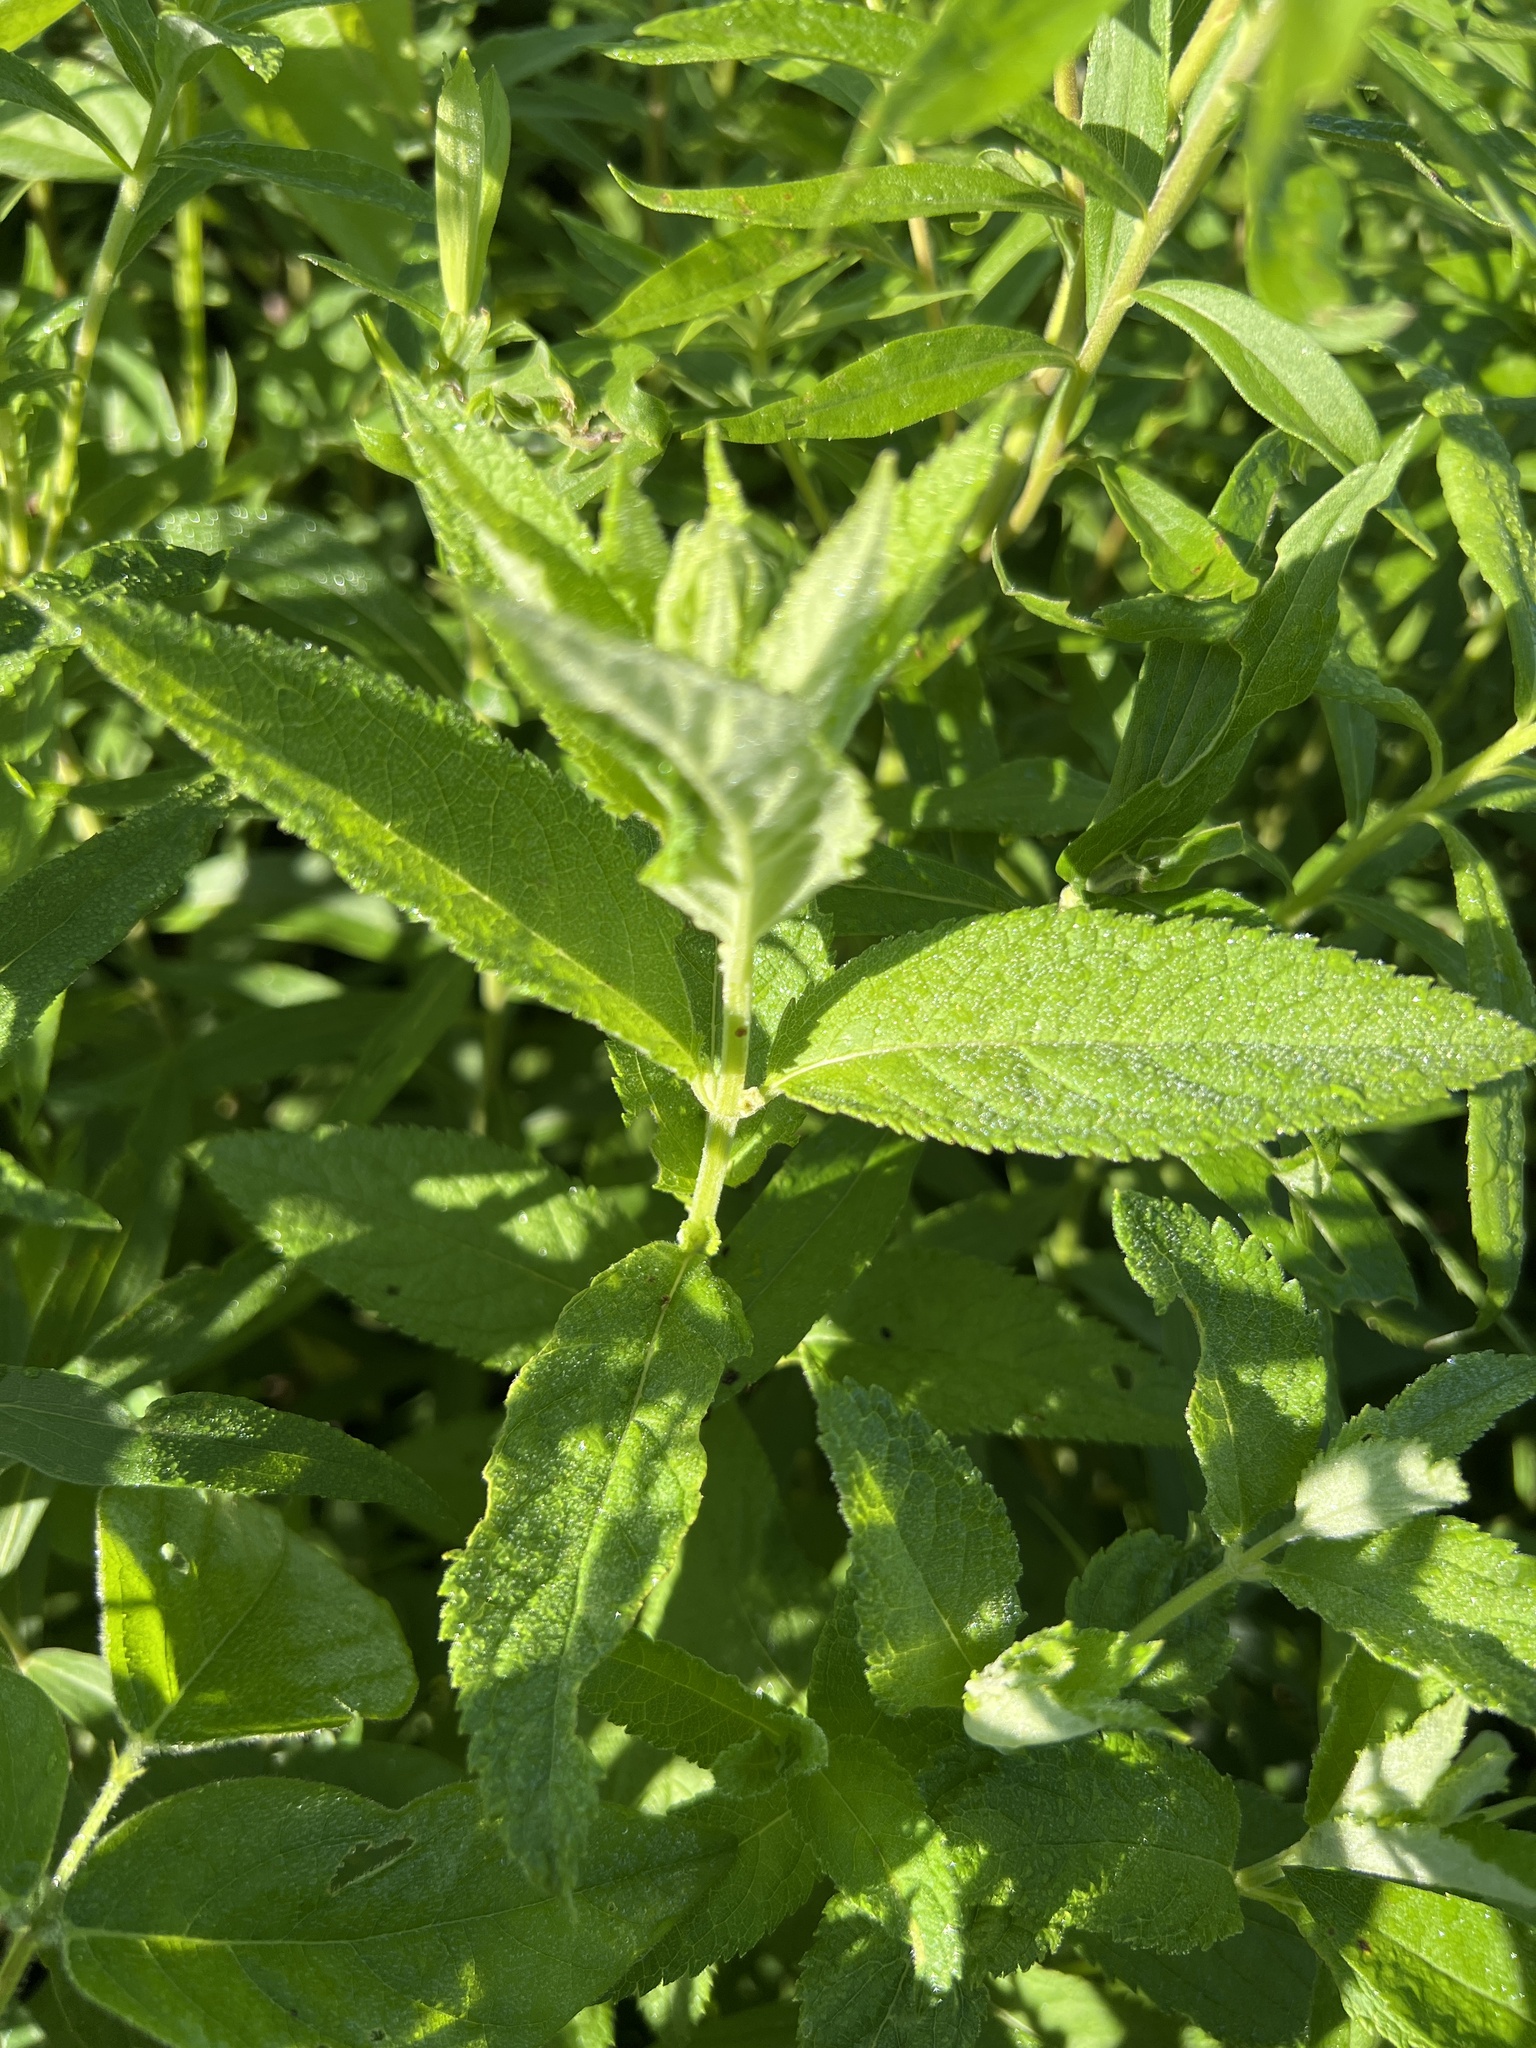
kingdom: Plantae
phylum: Tracheophyta
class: Magnoliopsida
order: Lamiales
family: Lamiaceae
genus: Teucrium
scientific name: Teucrium canadense
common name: American germander
